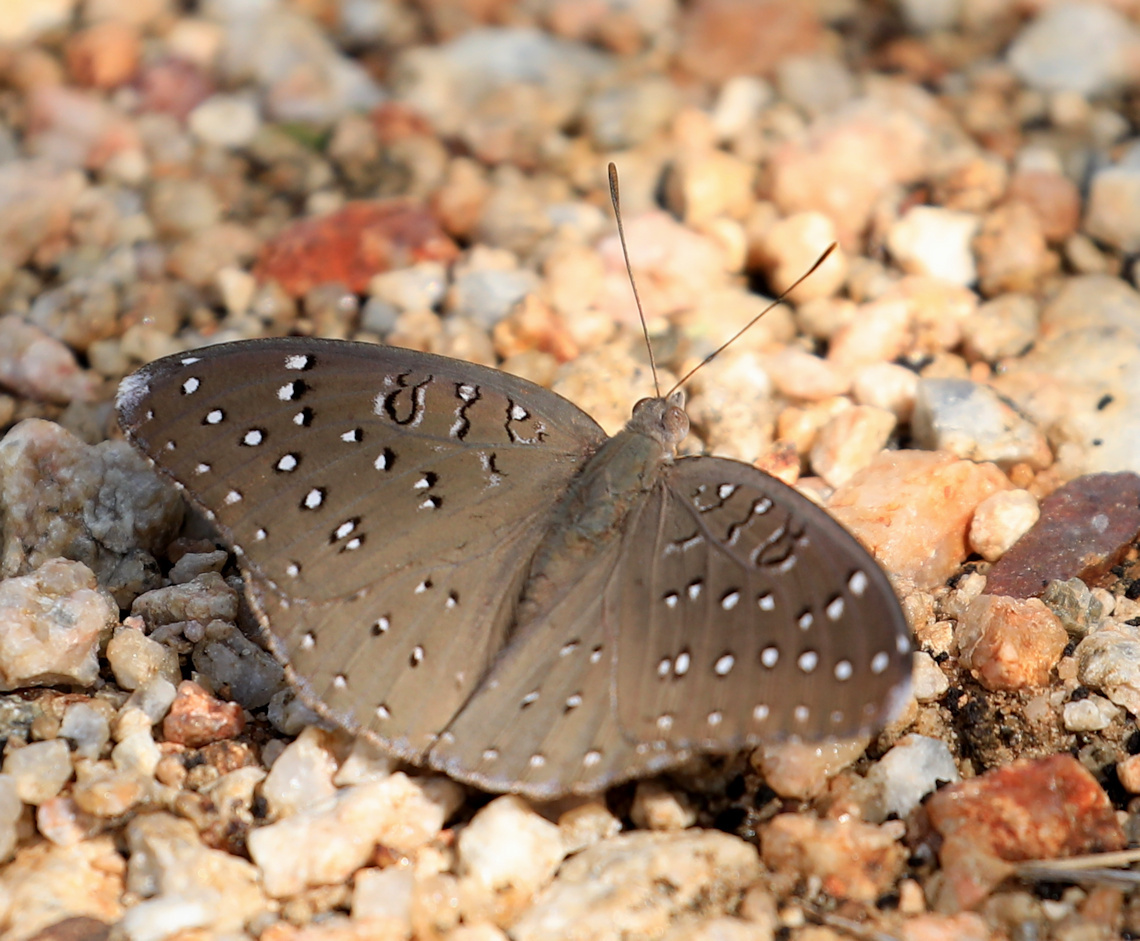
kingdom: Animalia
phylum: Arthropoda
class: Insecta
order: Lepidoptera
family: Nymphalidae
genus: Hamanumida
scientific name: Hamanumida daedalus
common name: Guinea-fowl butterfly
